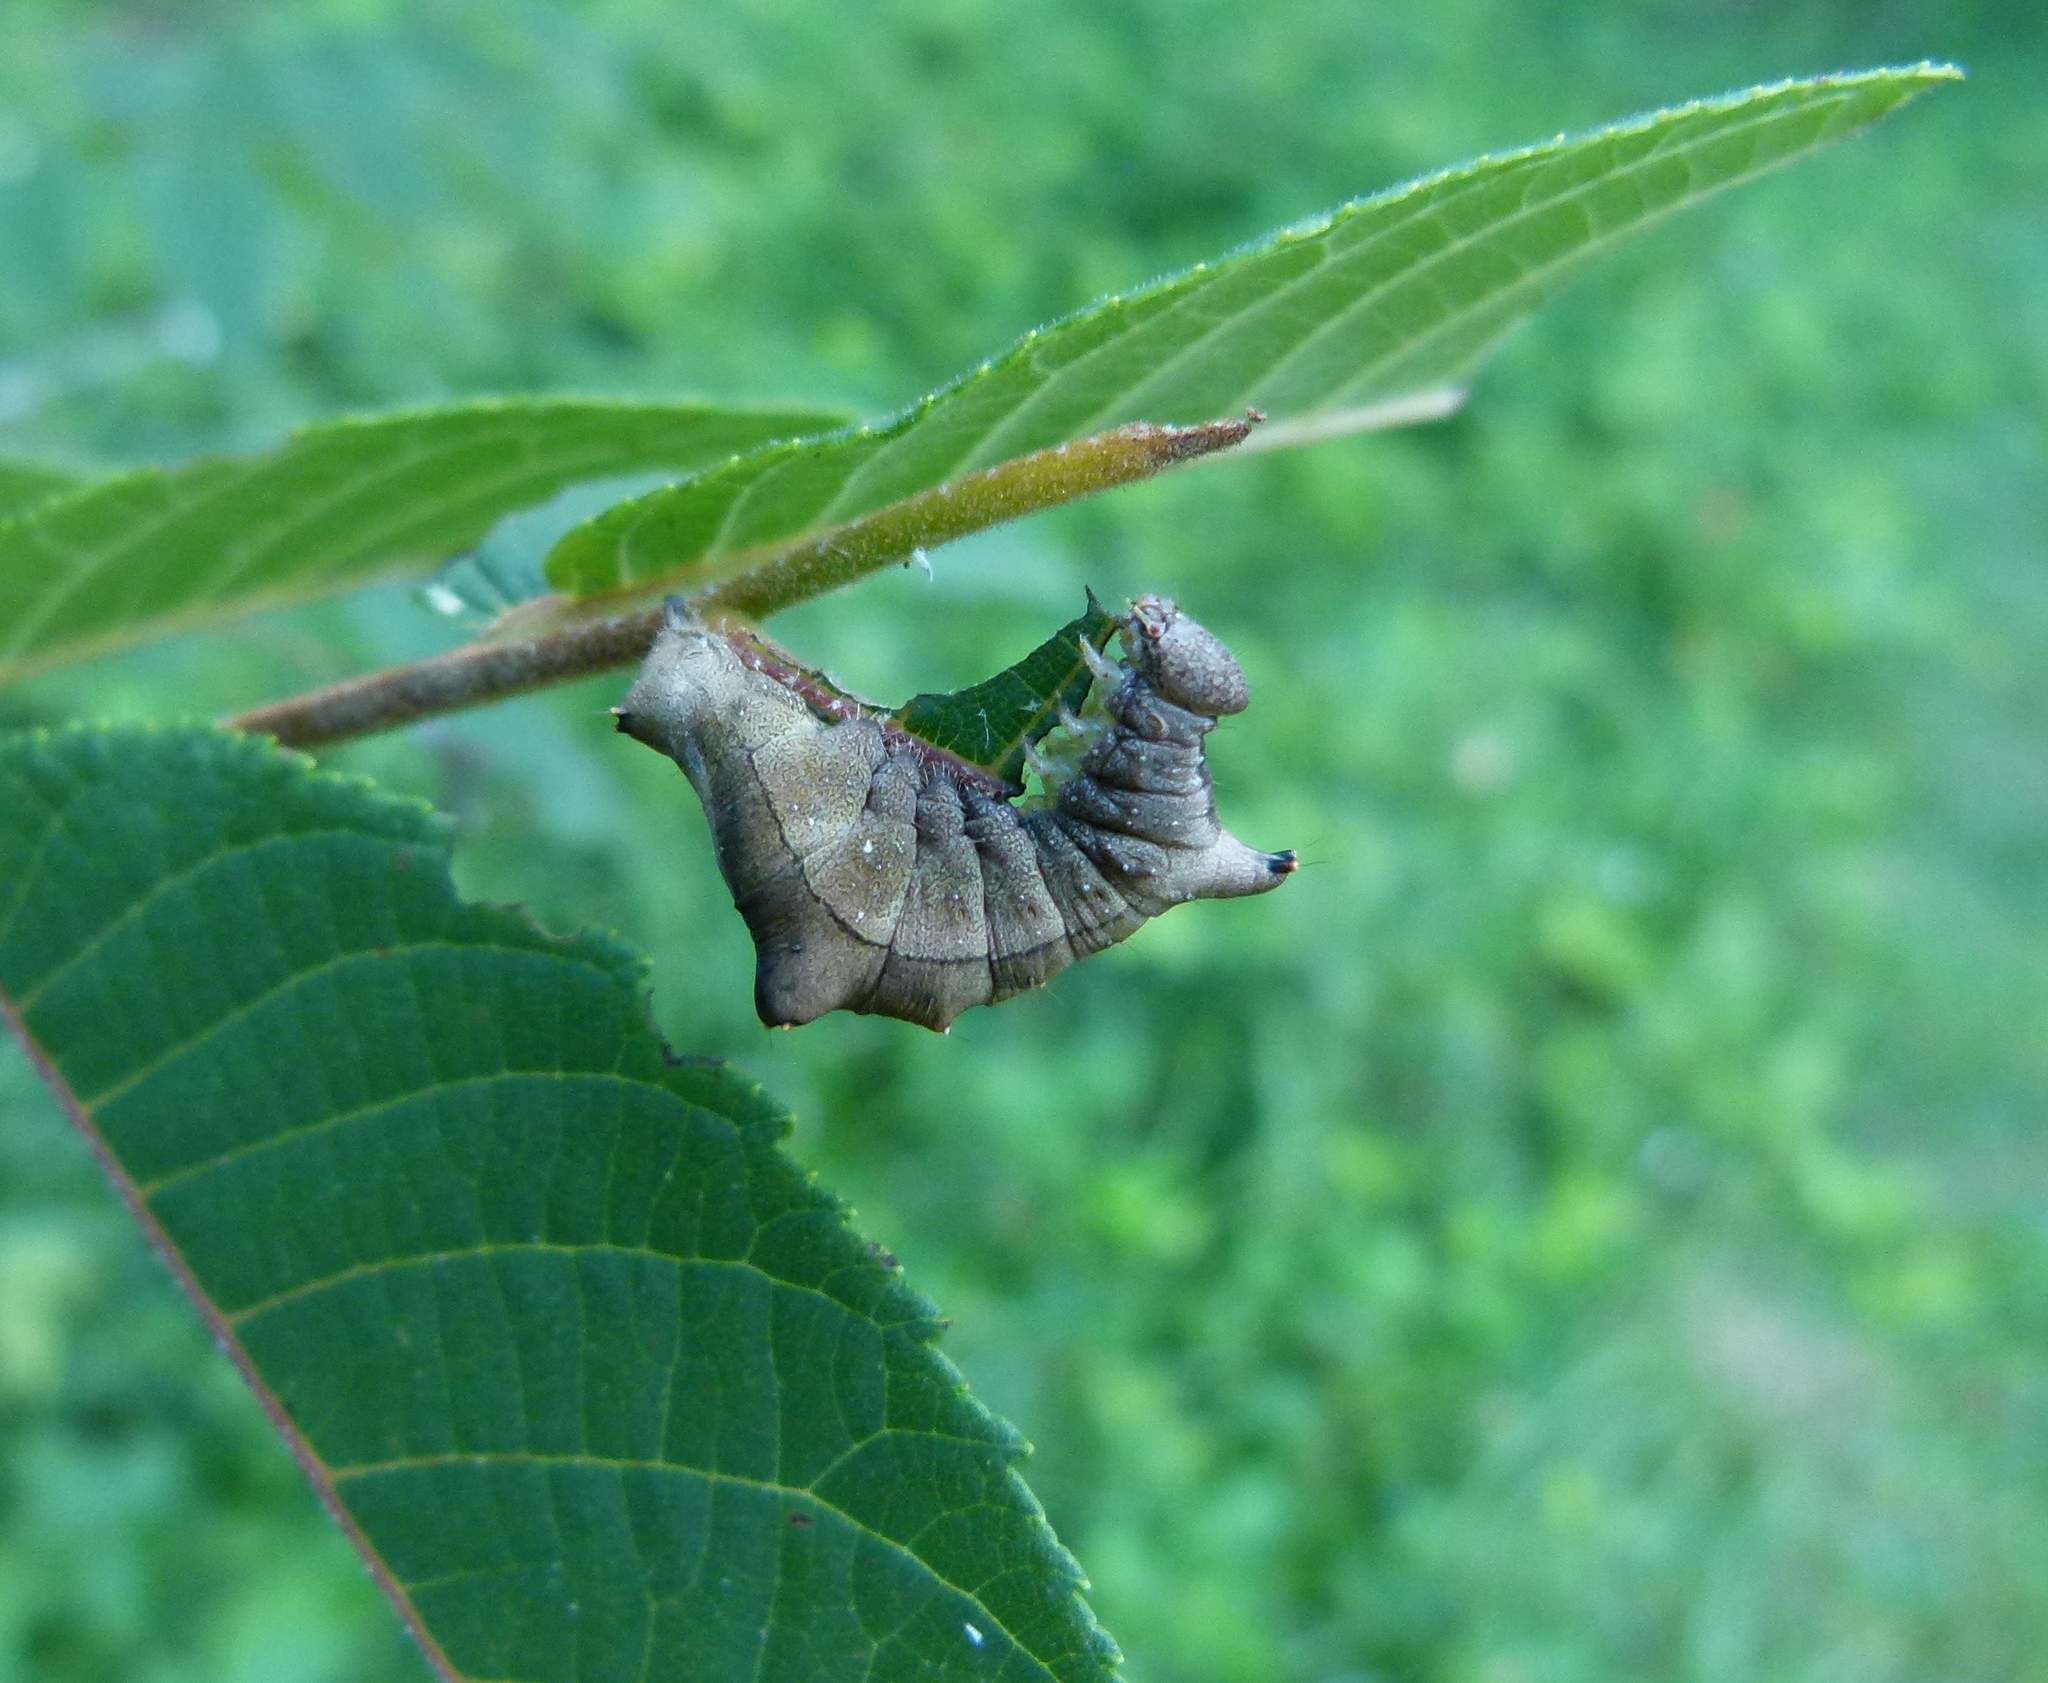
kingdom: Animalia
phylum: Arthropoda
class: Insecta
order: Lepidoptera
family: Notodontidae
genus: Schizura
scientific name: Schizura
